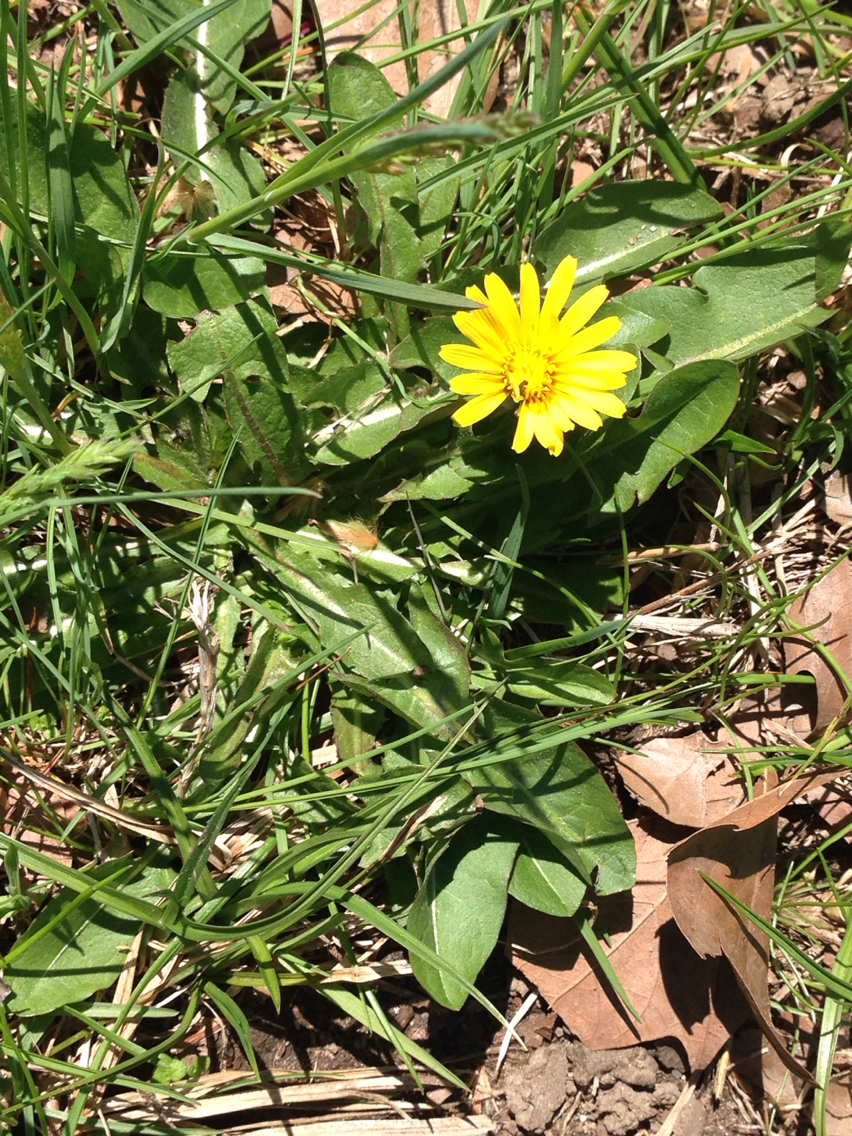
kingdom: Plantae
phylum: Tracheophyta
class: Magnoliopsida
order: Asterales
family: Asteraceae
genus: Taraxacum
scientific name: Taraxacum
